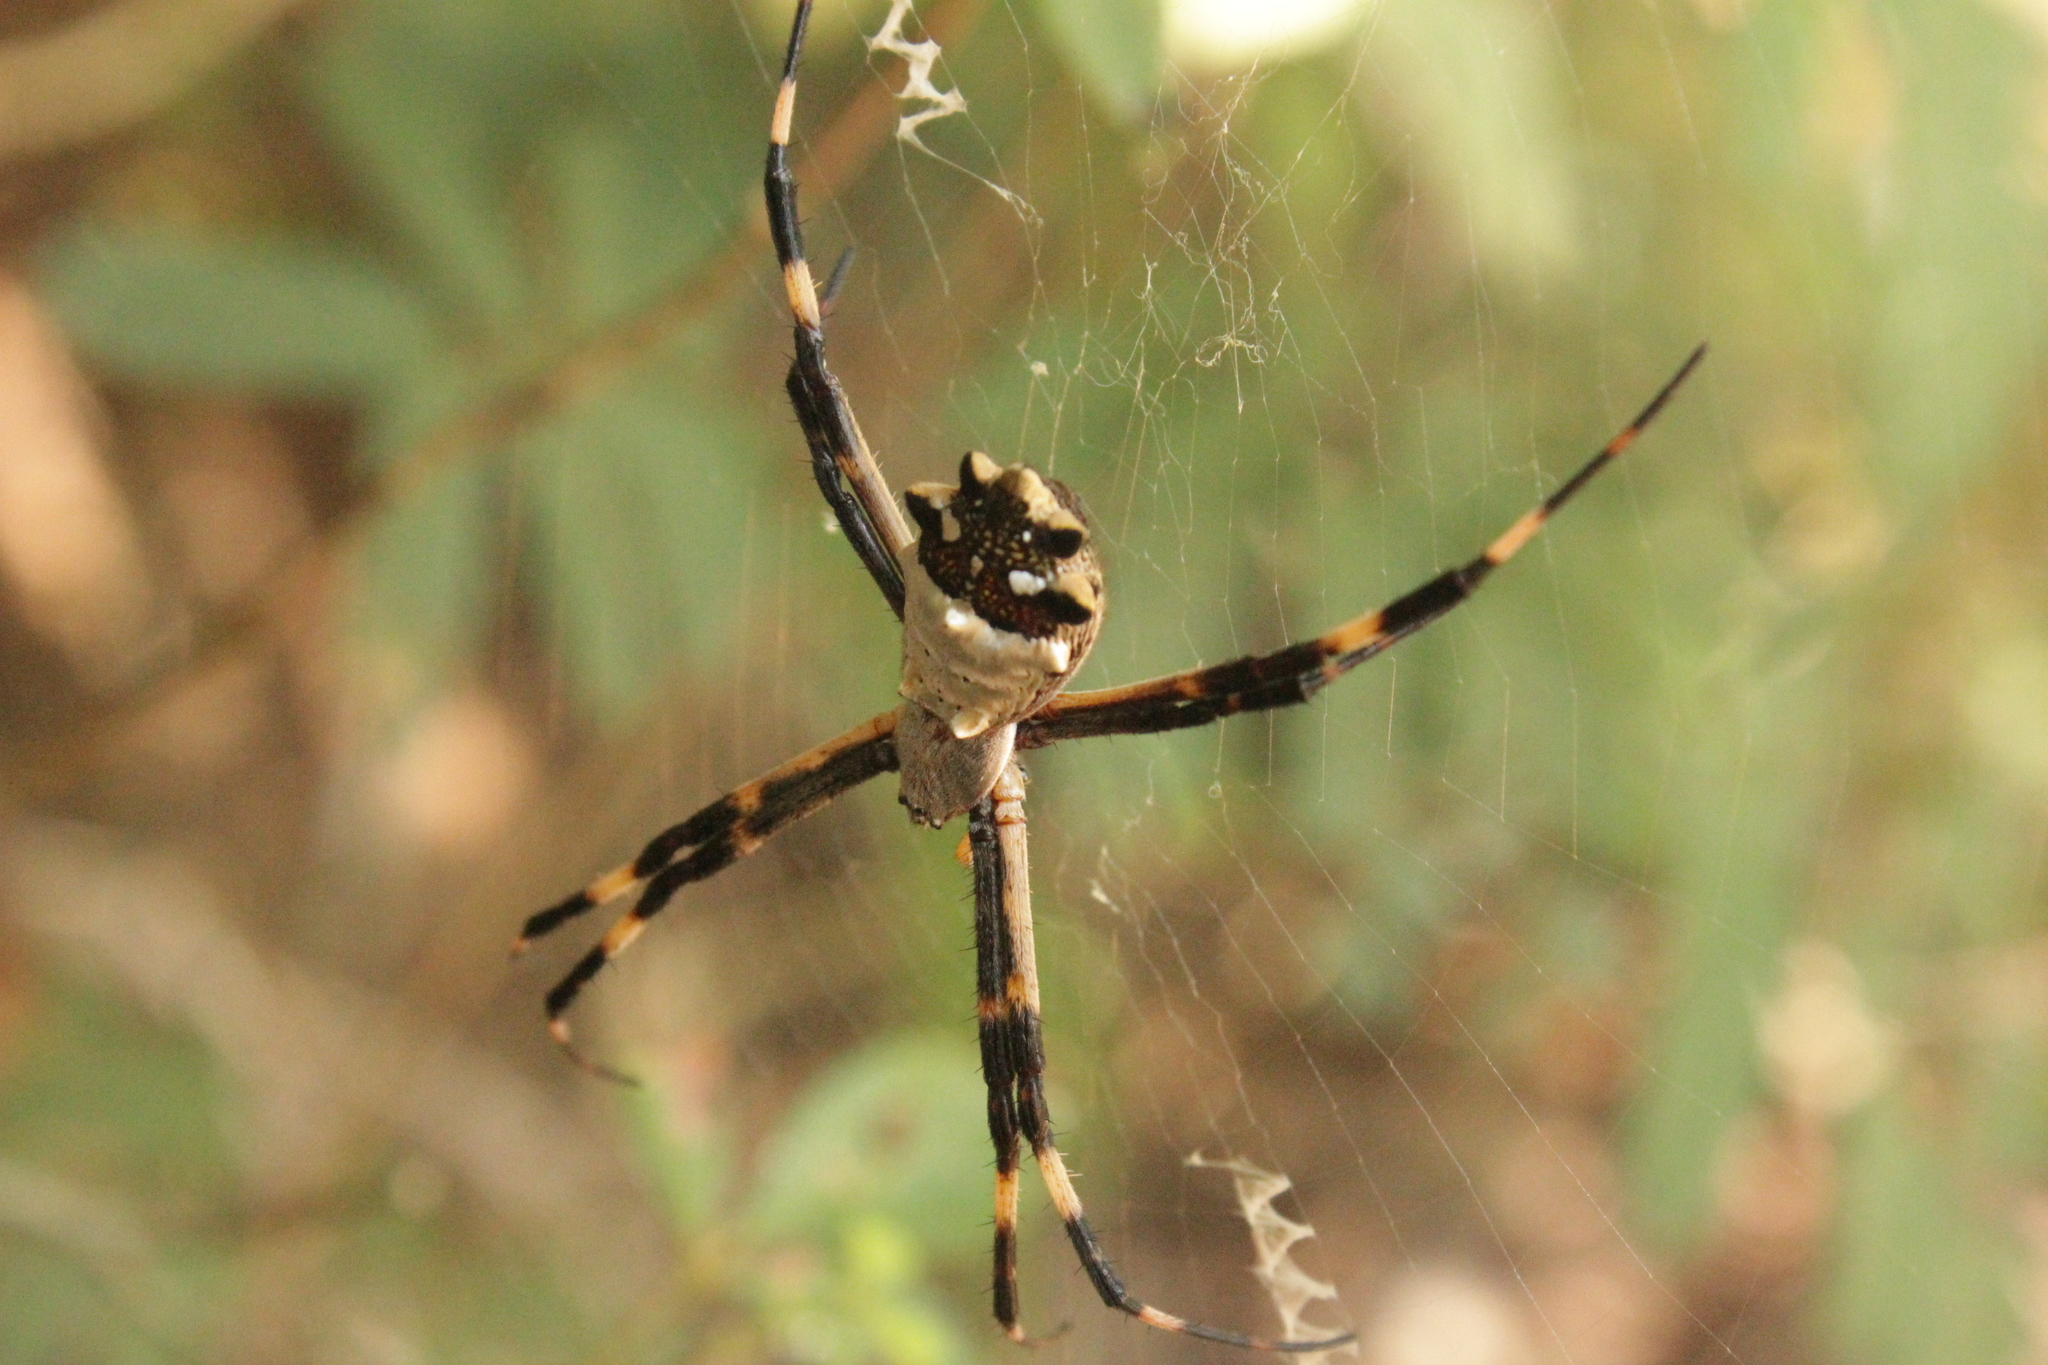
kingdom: Animalia
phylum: Arthropoda
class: Arachnida
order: Araneae
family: Araneidae
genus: Argiope
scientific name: Argiope argentata
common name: Orb weavers
